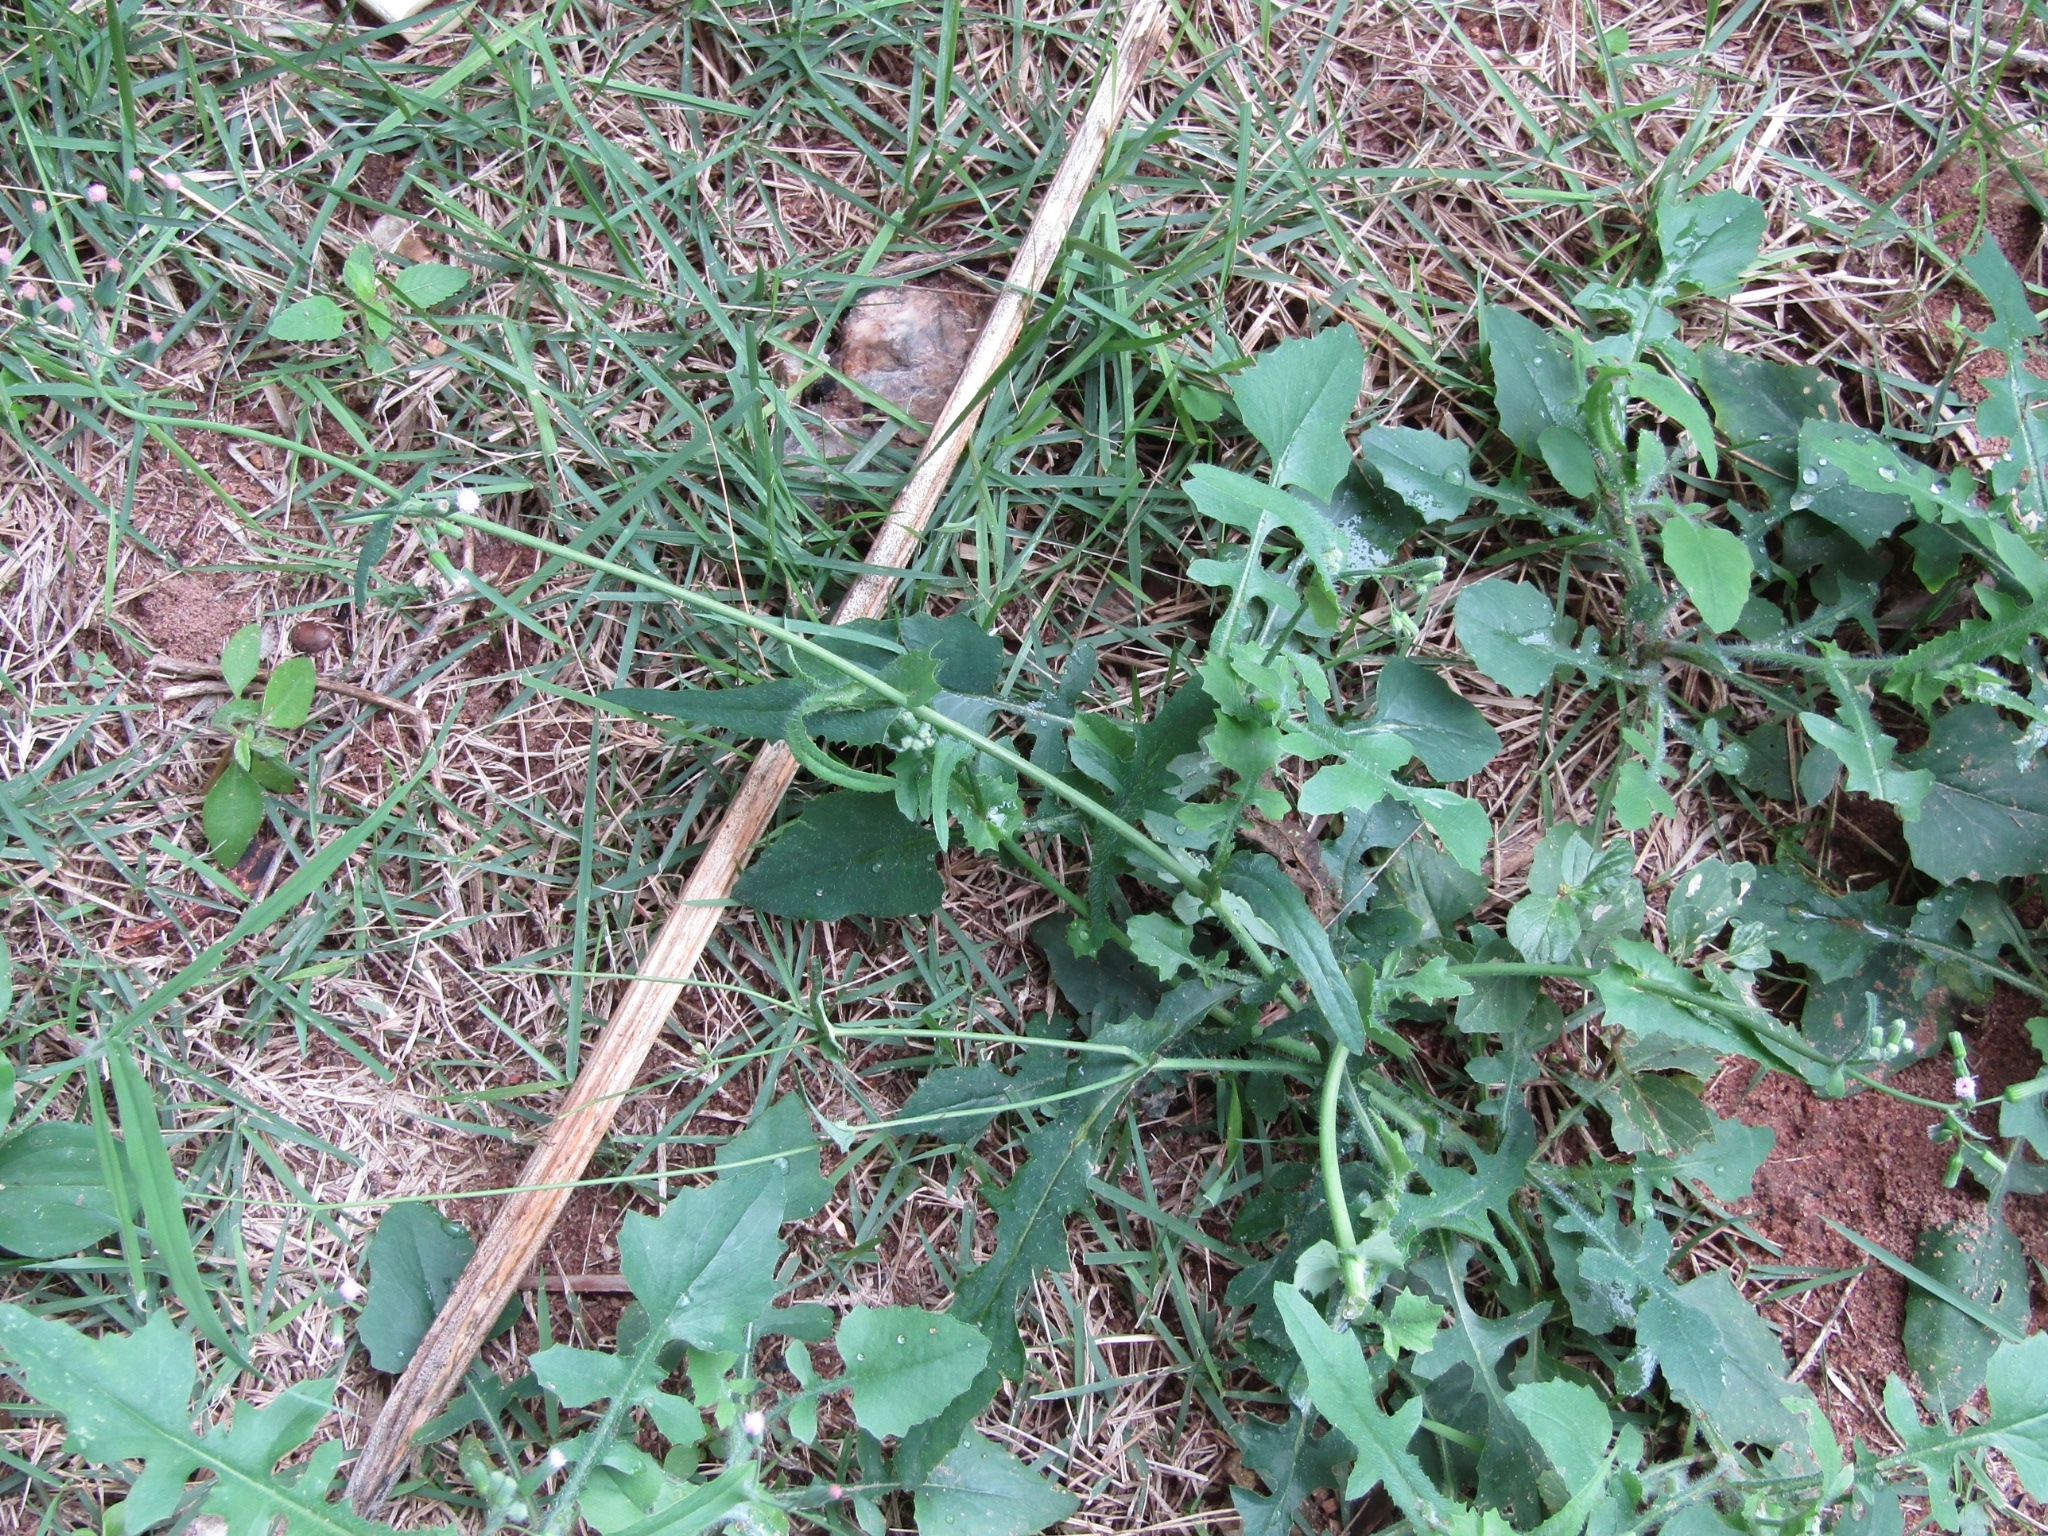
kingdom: Plantae
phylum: Tracheophyta
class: Magnoliopsida
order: Asterales
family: Asteraceae
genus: Emilia
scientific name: Emilia sonchifolia
